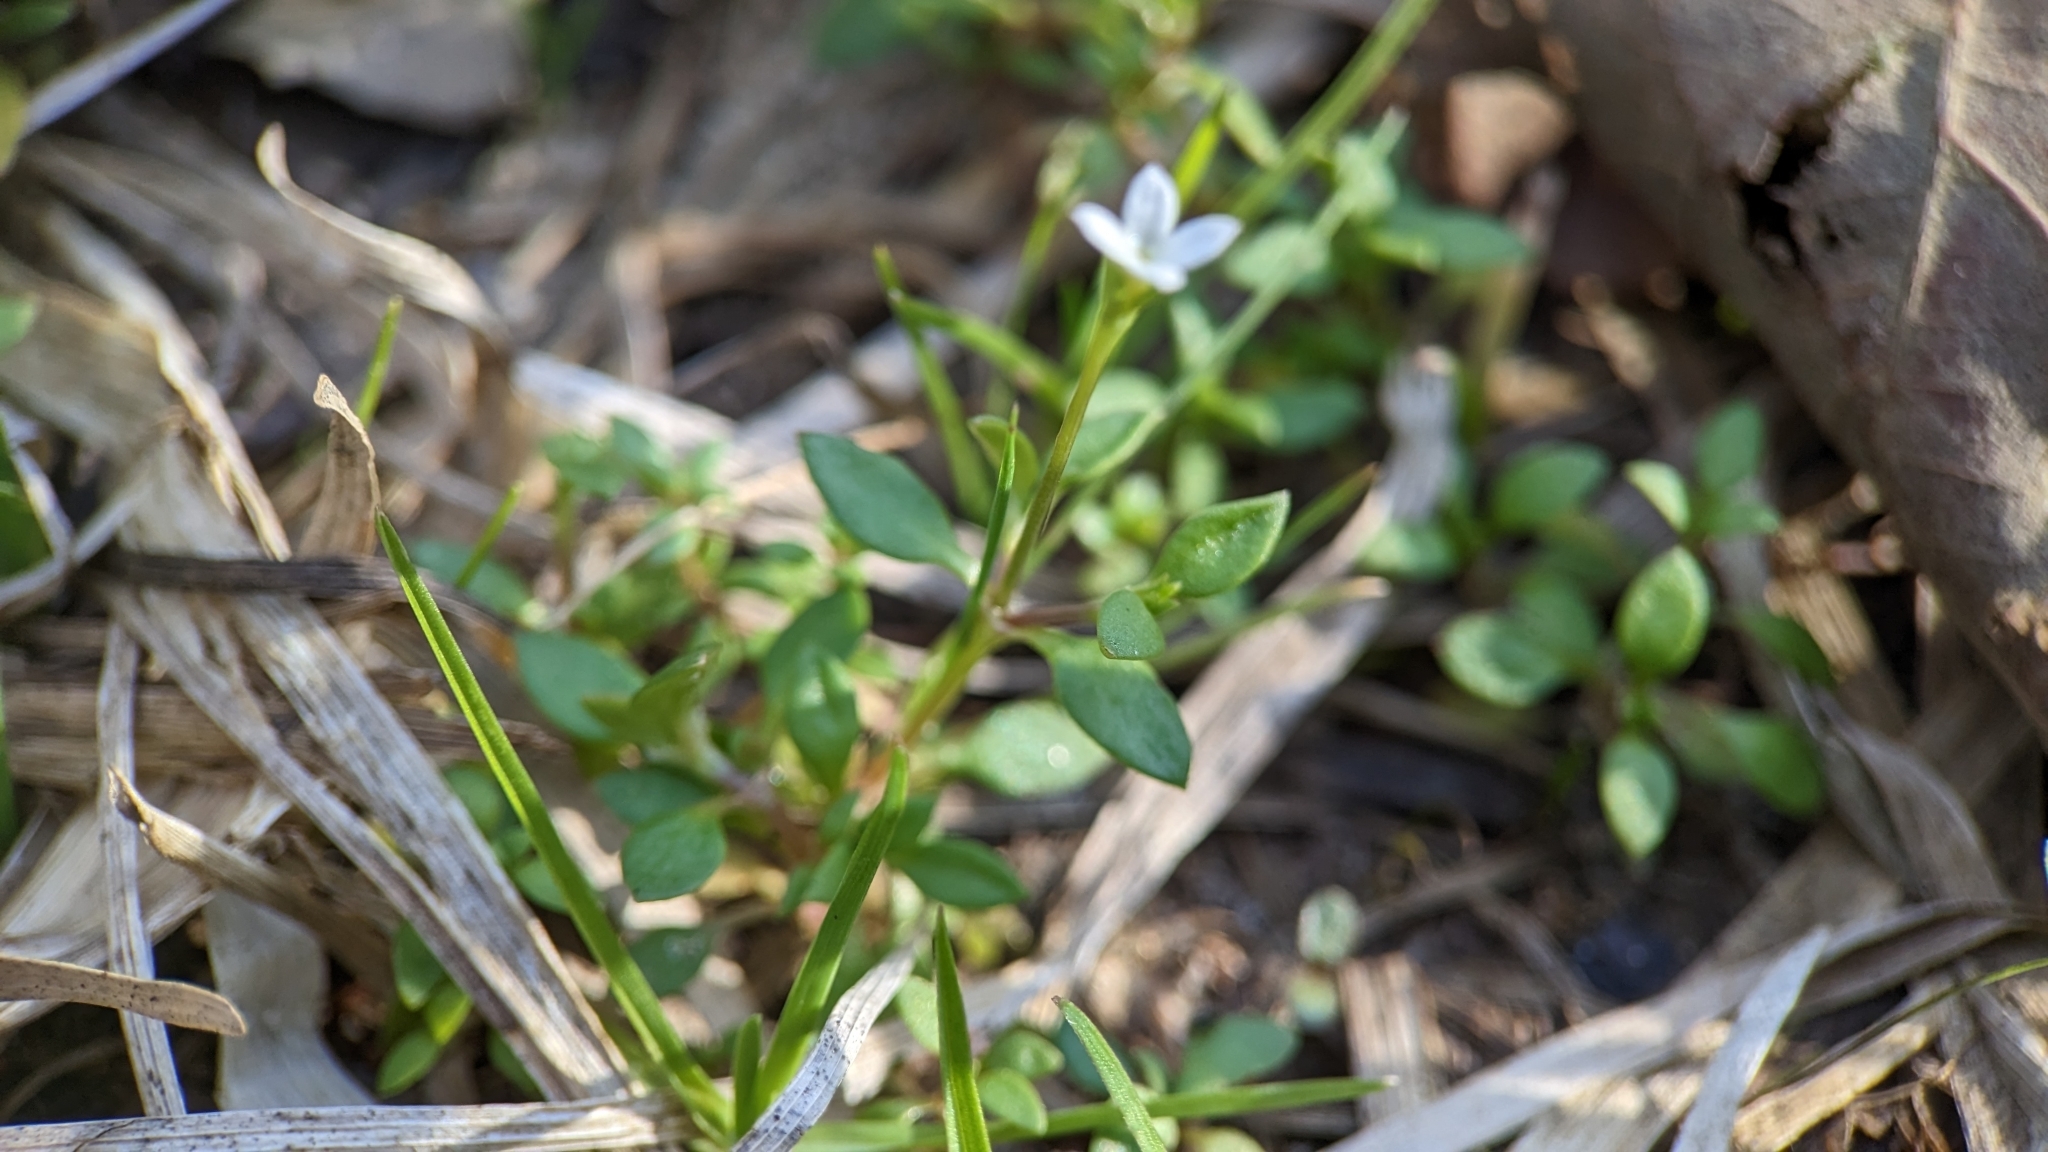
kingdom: Plantae
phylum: Tracheophyta
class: Magnoliopsida
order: Gentianales
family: Rubiaceae
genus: Houstonia
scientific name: Houstonia micrantha
